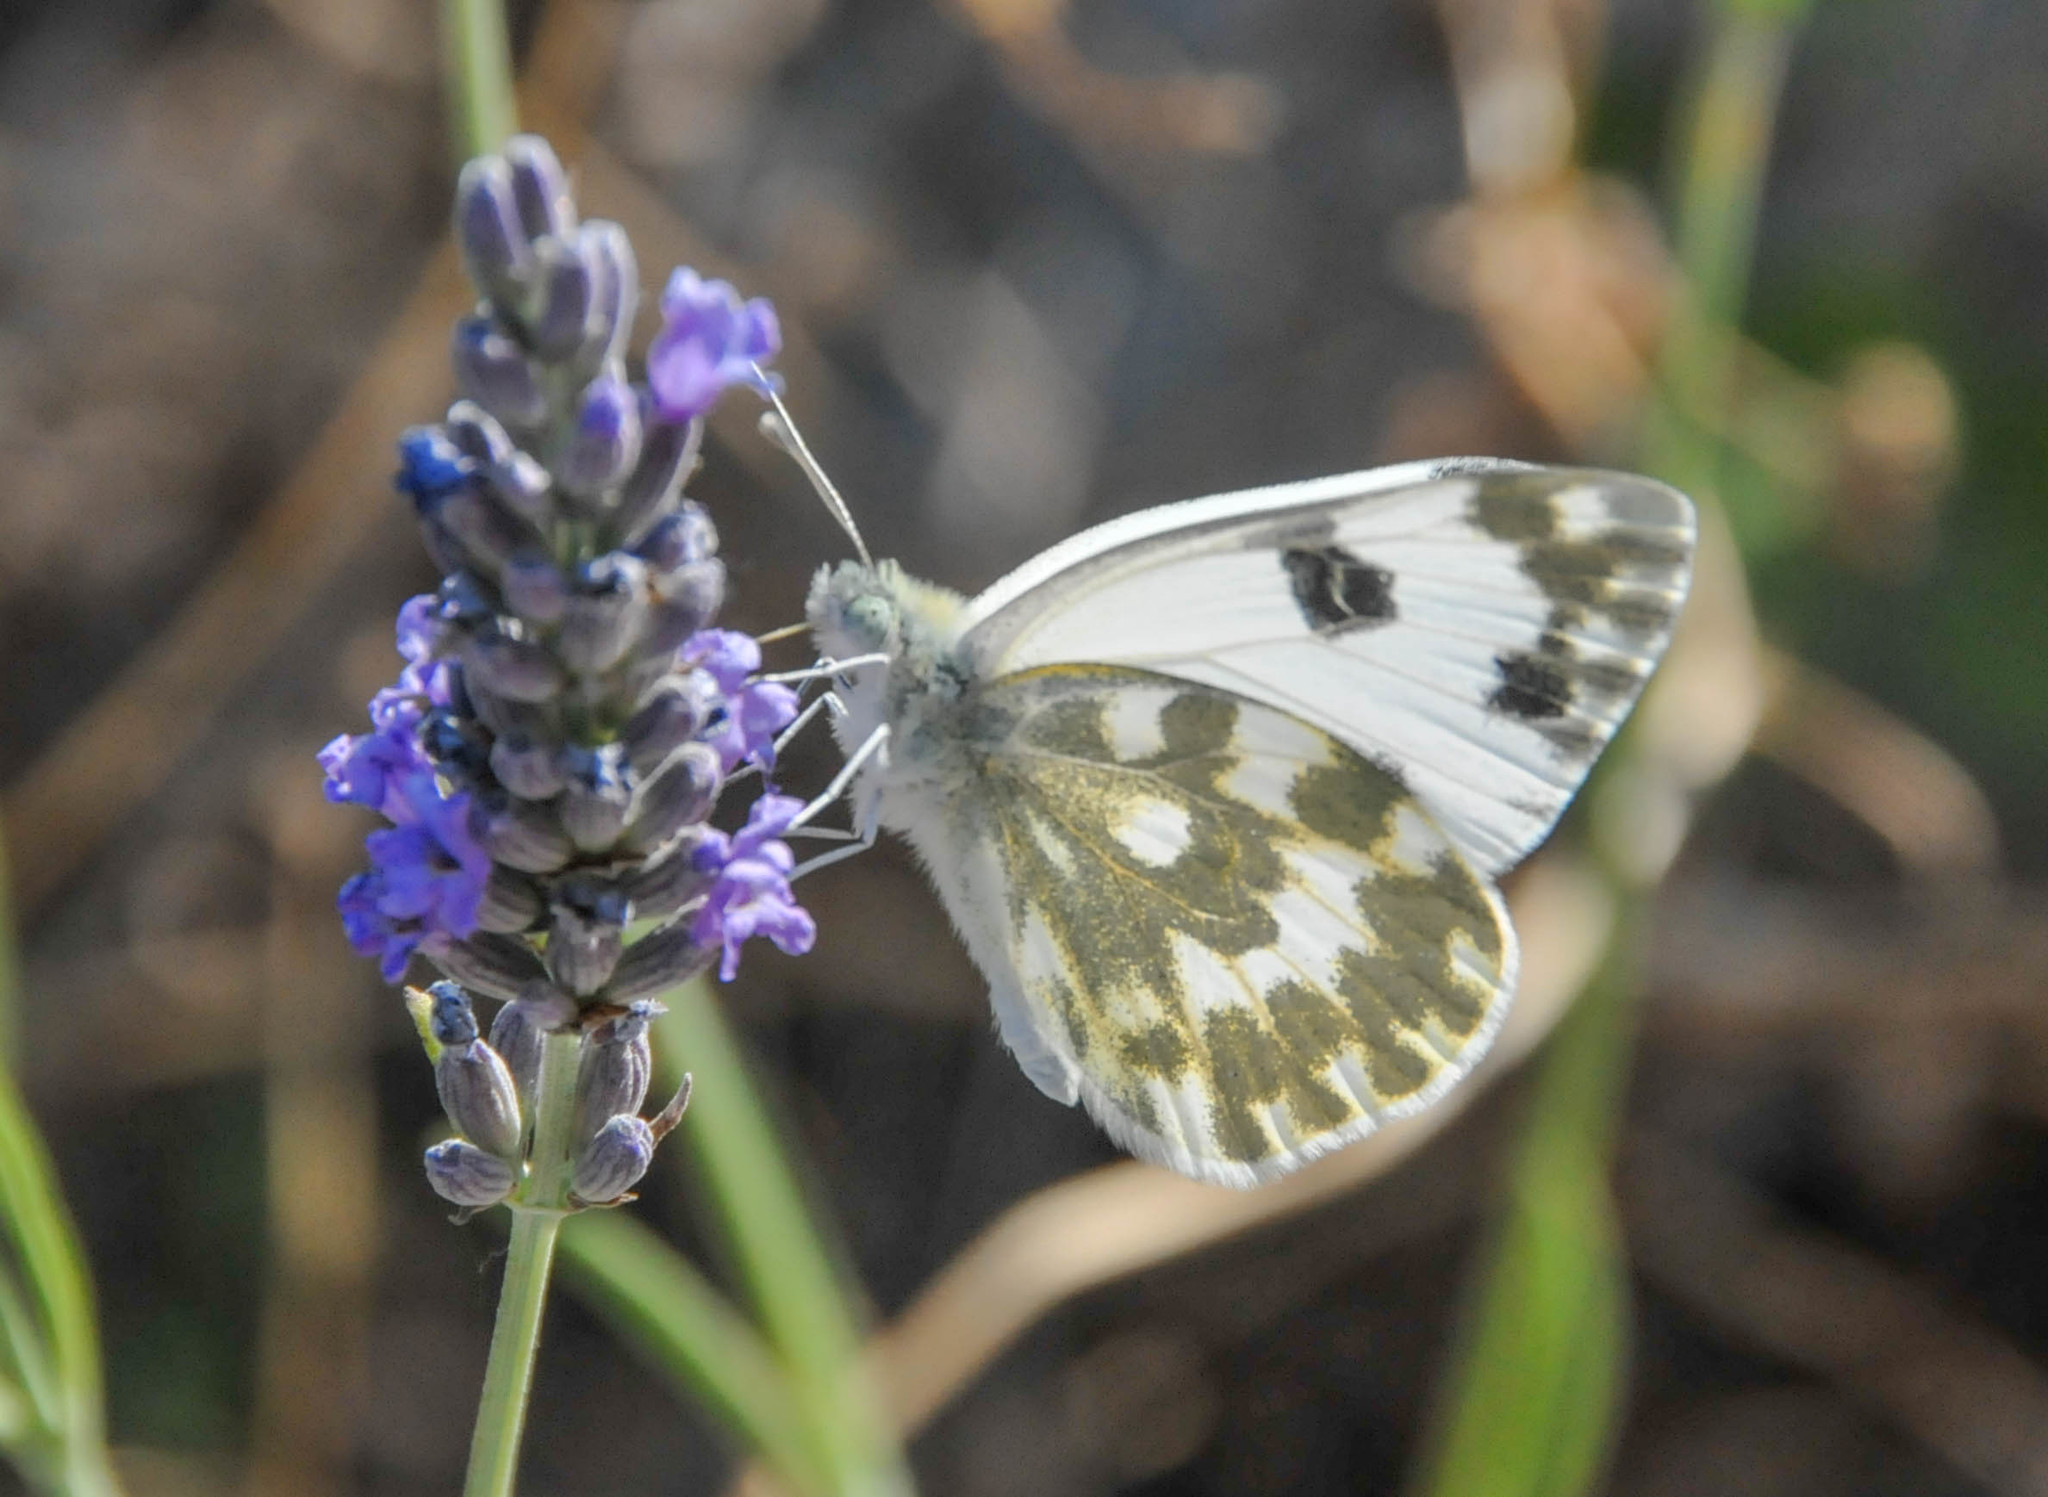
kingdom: Animalia
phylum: Arthropoda
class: Insecta
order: Lepidoptera
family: Pieridae
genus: Pontia
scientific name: Pontia daplidice
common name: Bath white
